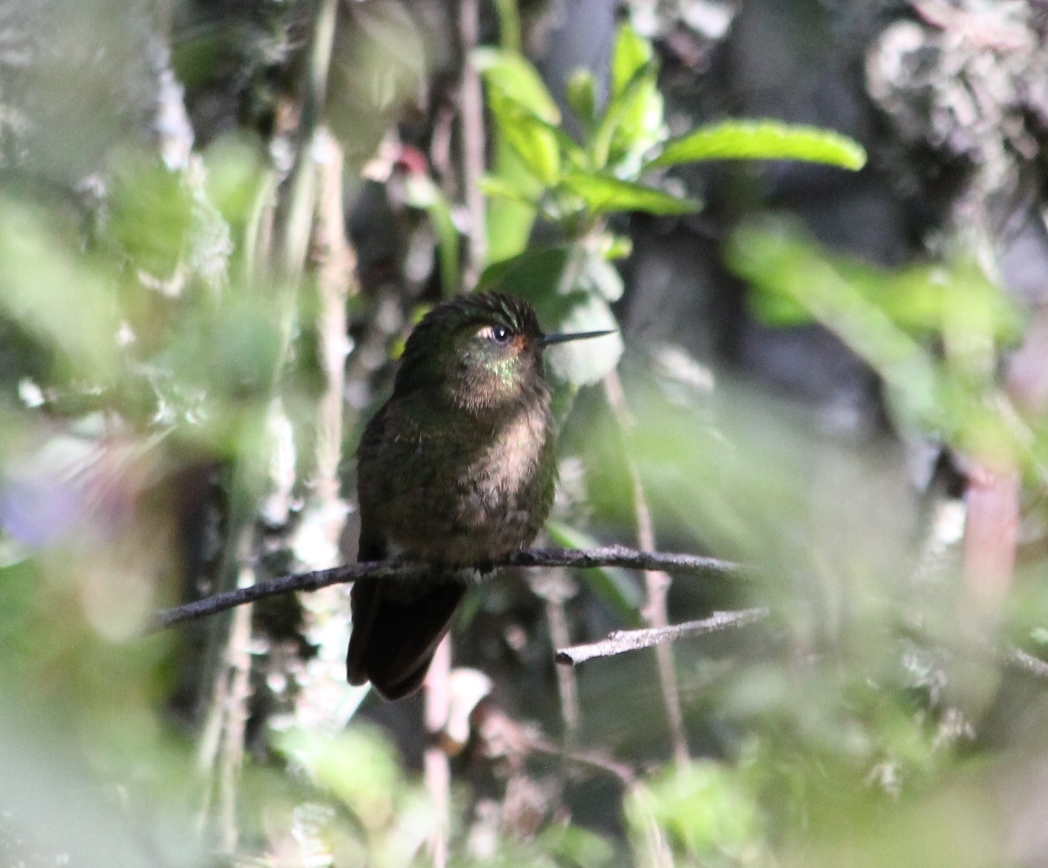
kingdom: Animalia
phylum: Chordata
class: Aves
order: Apodiformes
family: Trochilidae
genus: Metallura
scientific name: Metallura tyrianthina
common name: Tyrian metaltail
